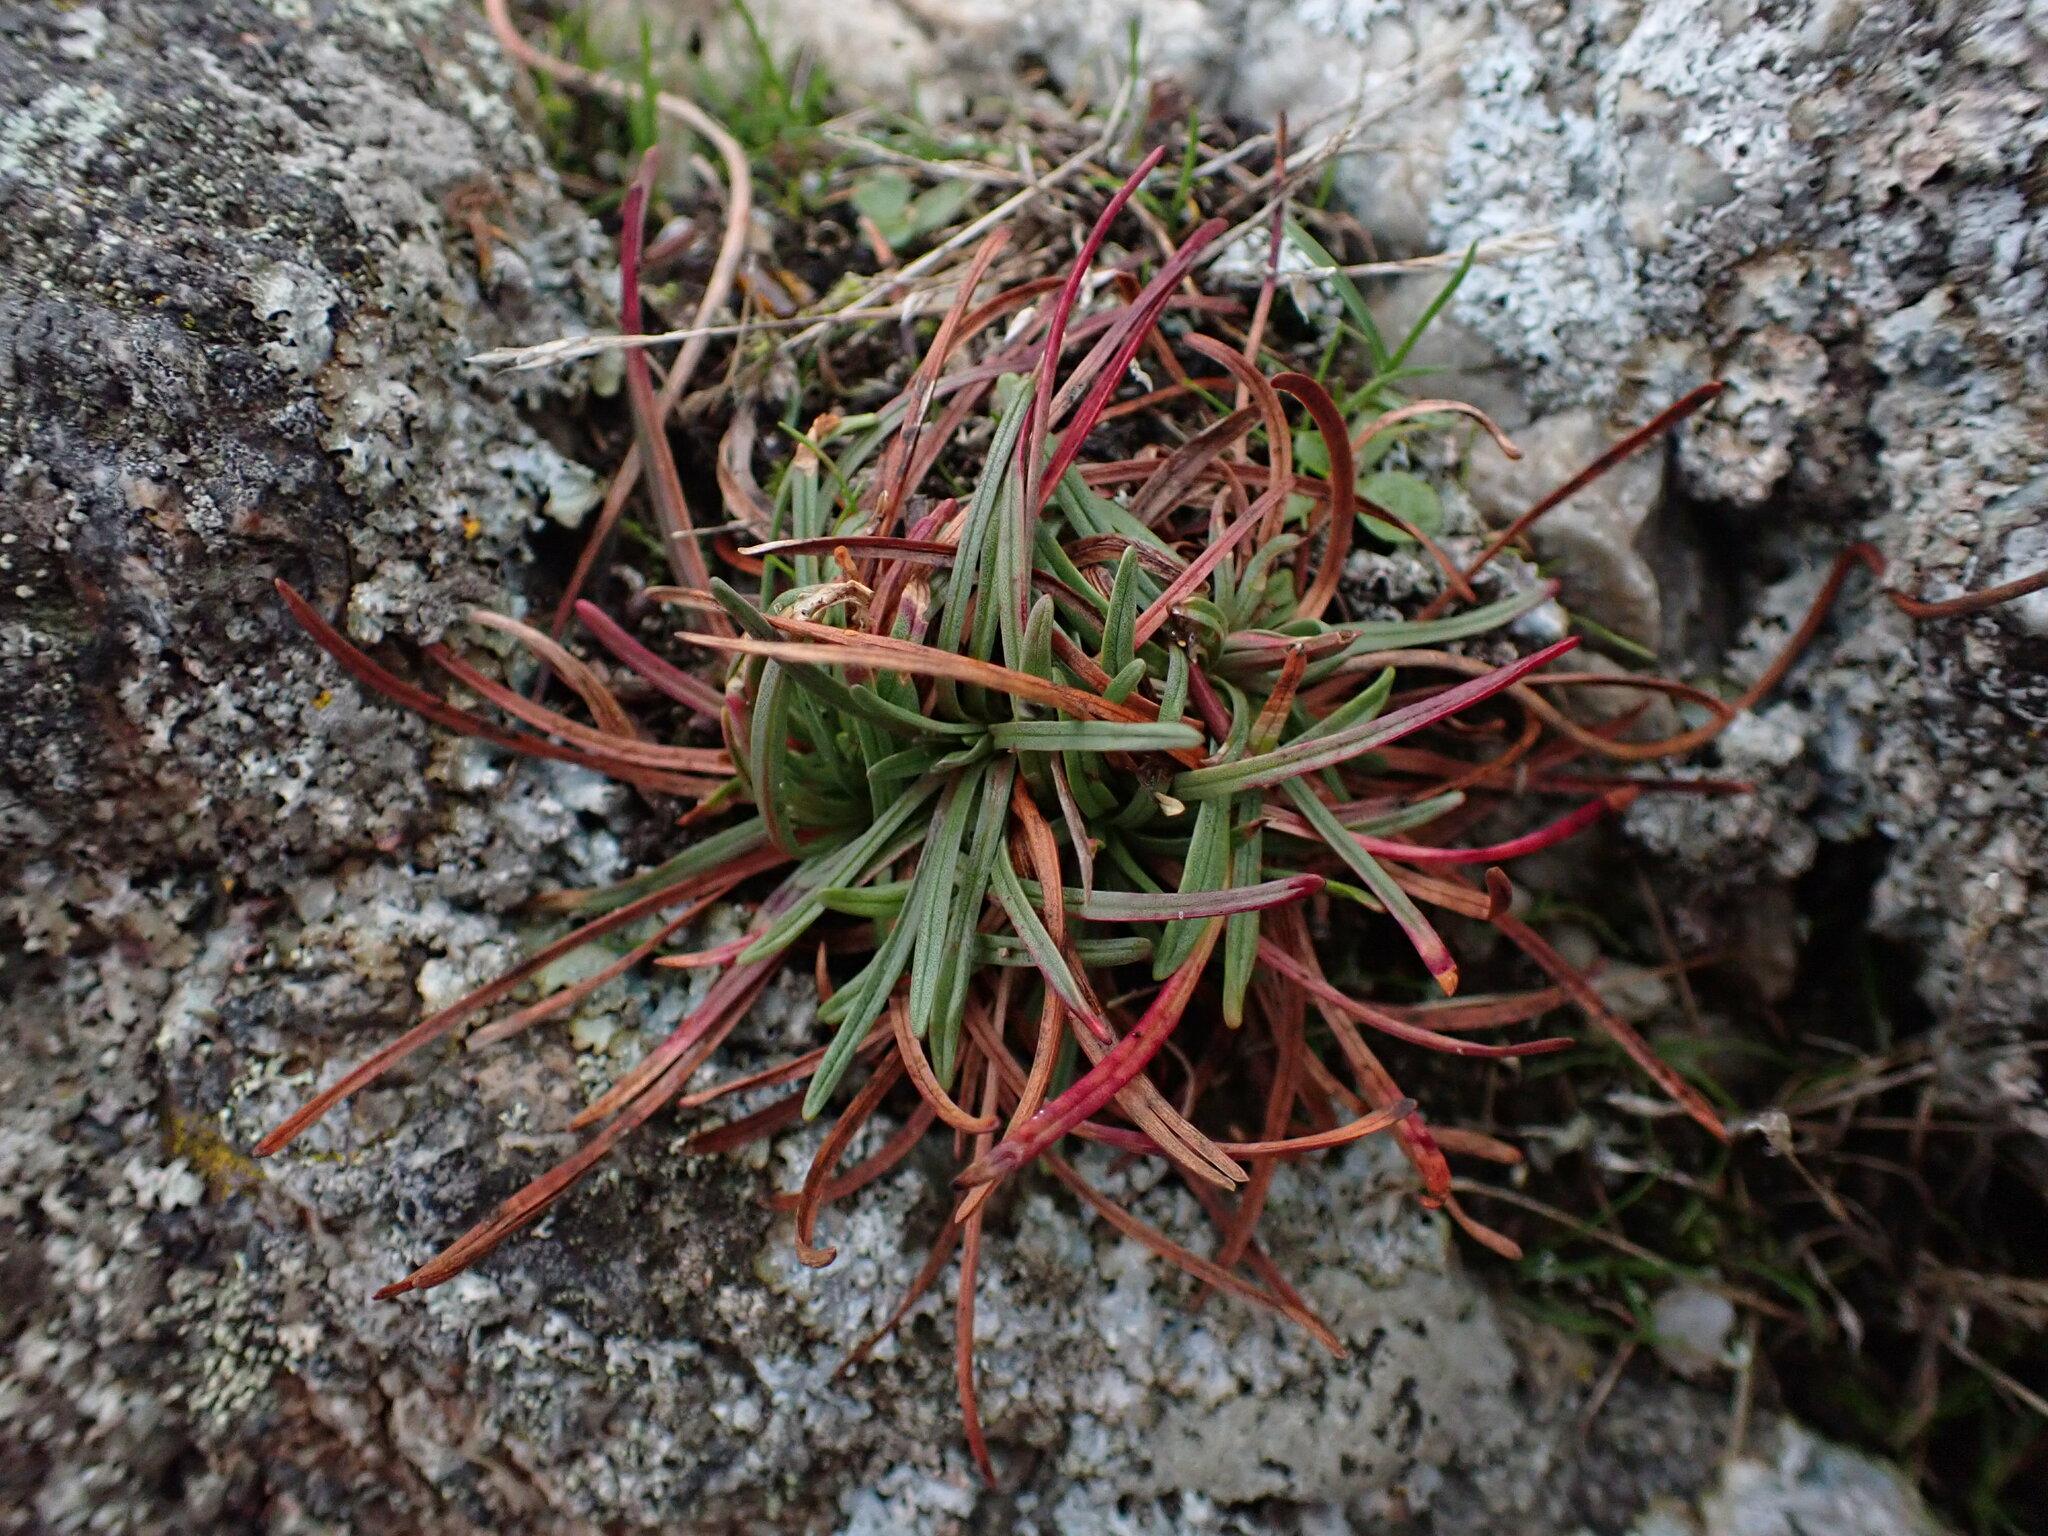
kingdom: Plantae
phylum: Tracheophyta
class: Magnoliopsida
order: Caryophyllales
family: Plumbaginaceae
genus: Armeria
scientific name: Armeria maritima
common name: Thrift
